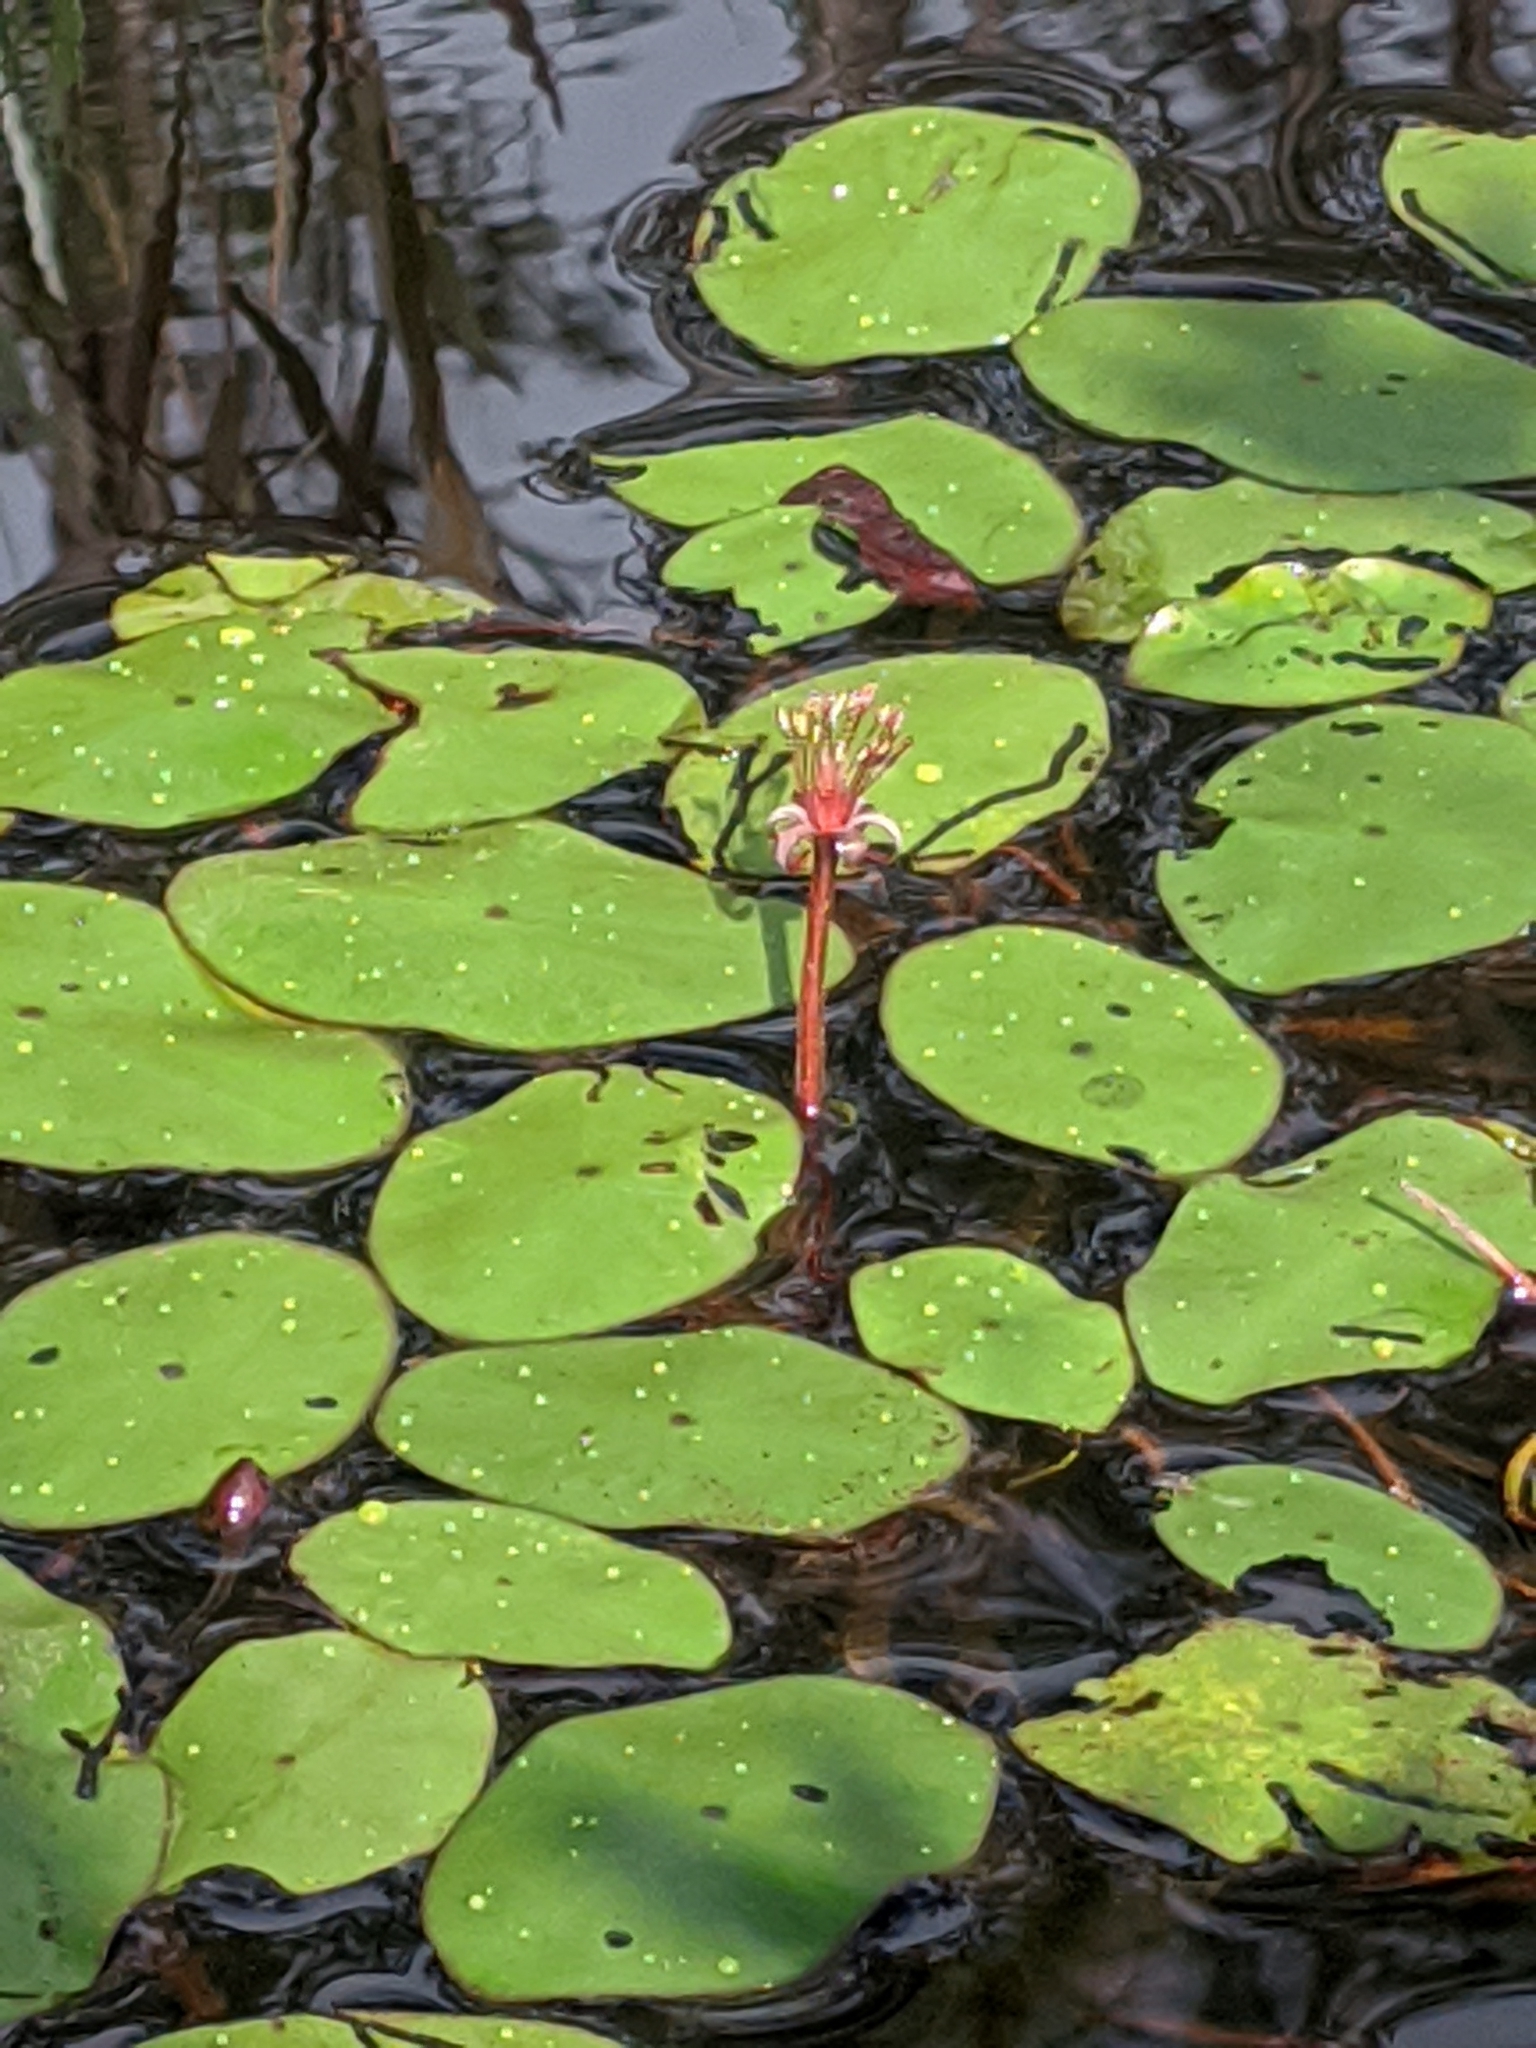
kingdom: Plantae
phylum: Tracheophyta
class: Magnoliopsida
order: Nymphaeales
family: Cabombaceae
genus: Brasenia
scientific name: Brasenia schreberi
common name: Water-shield
